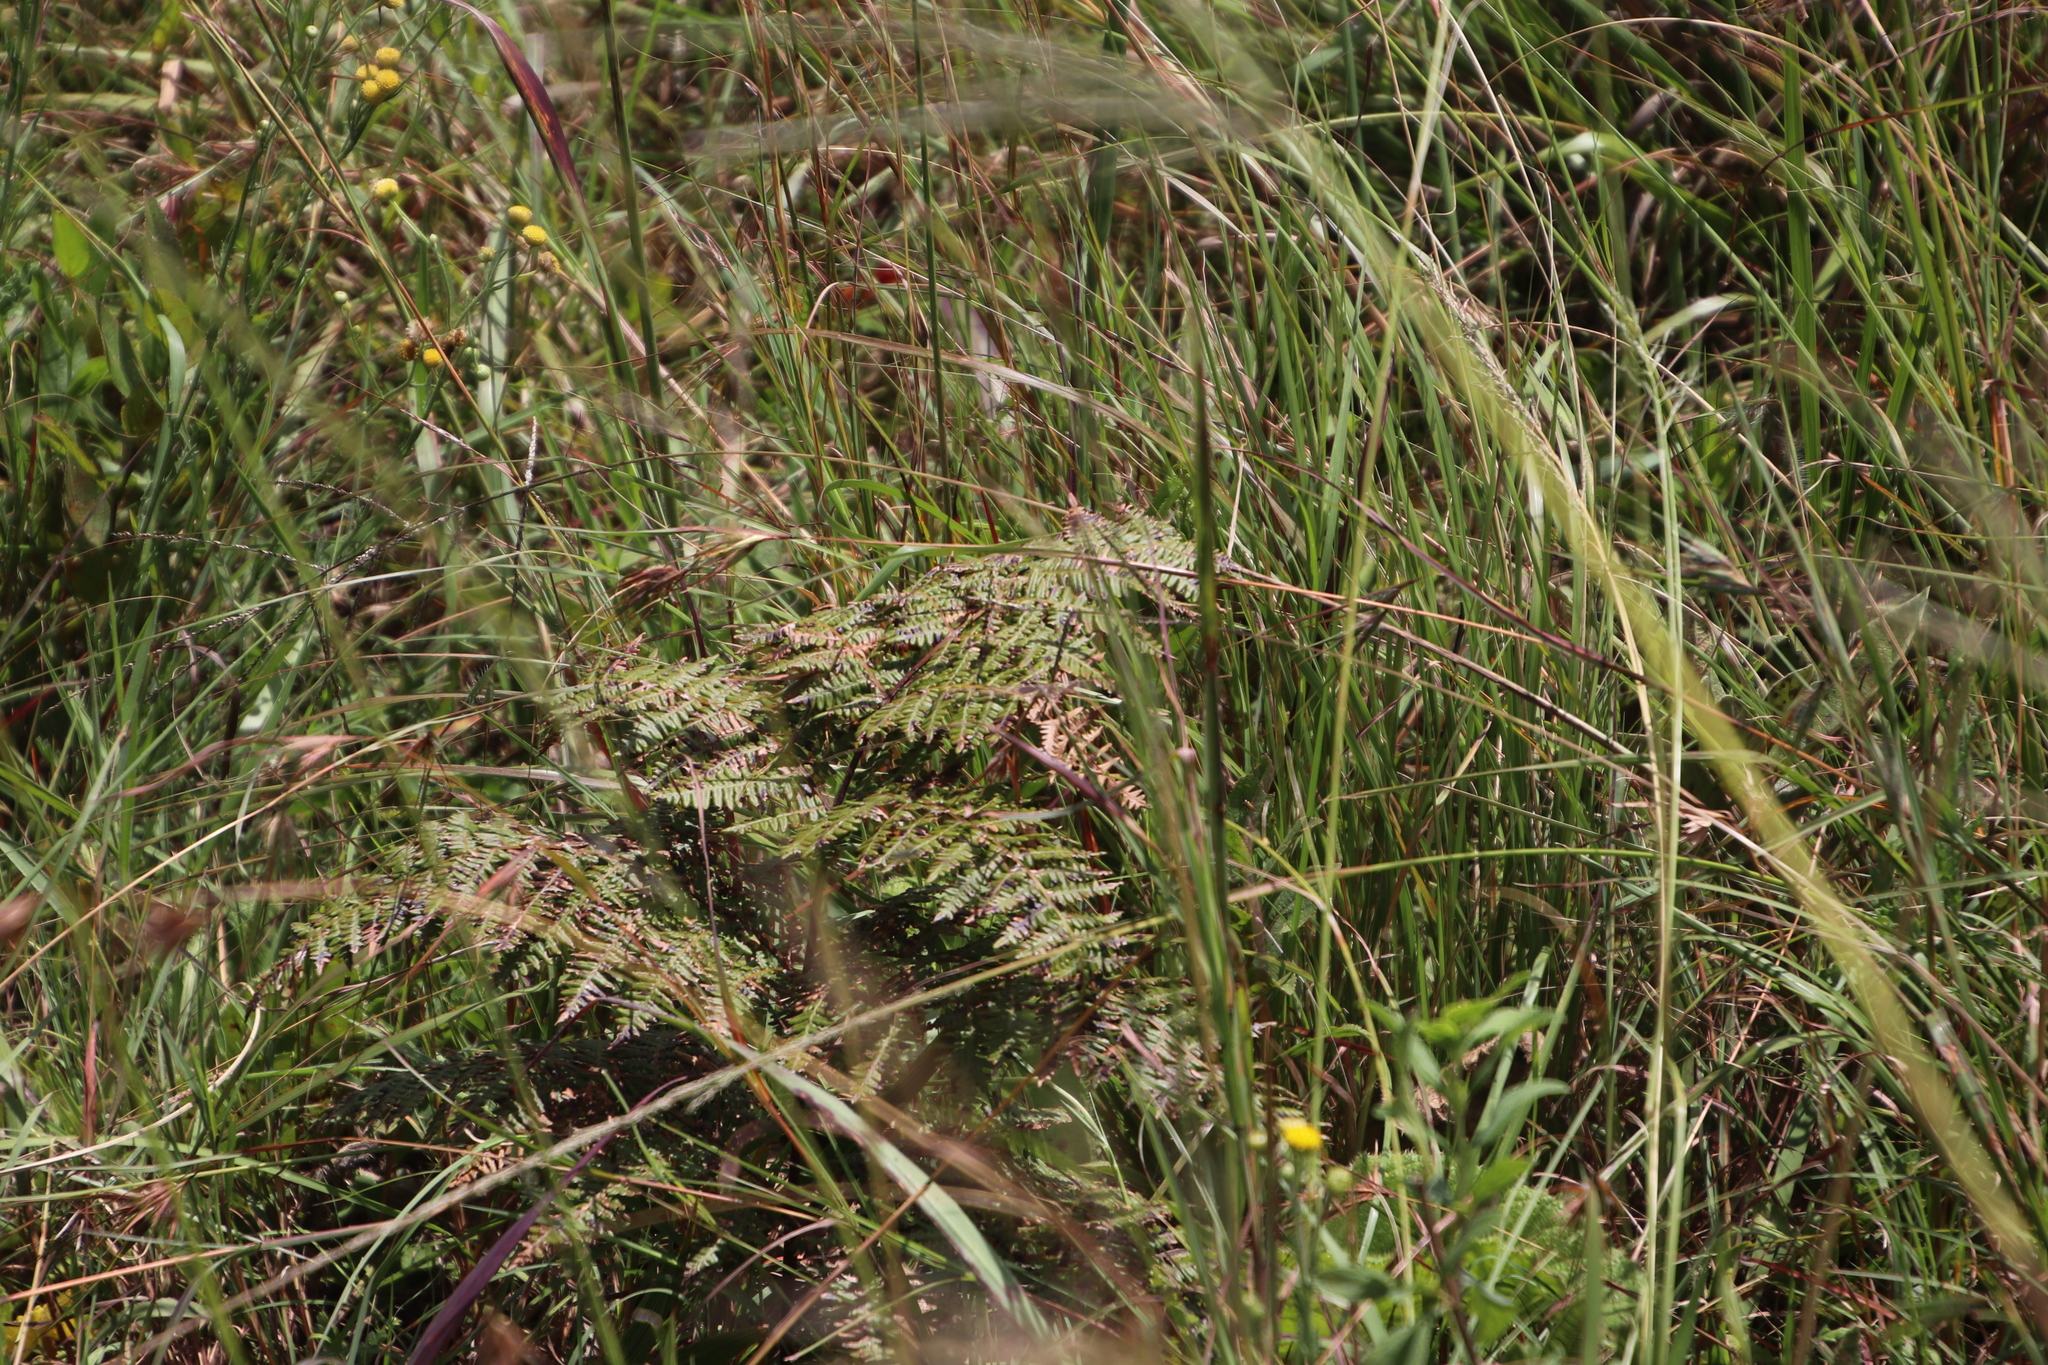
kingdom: Plantae
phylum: Tracheophyta
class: Polypodiopsida
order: Polypodiales
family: Dennstaedtiaceae
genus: Pteridium
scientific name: Pteridium aquilinum
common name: Bracken
